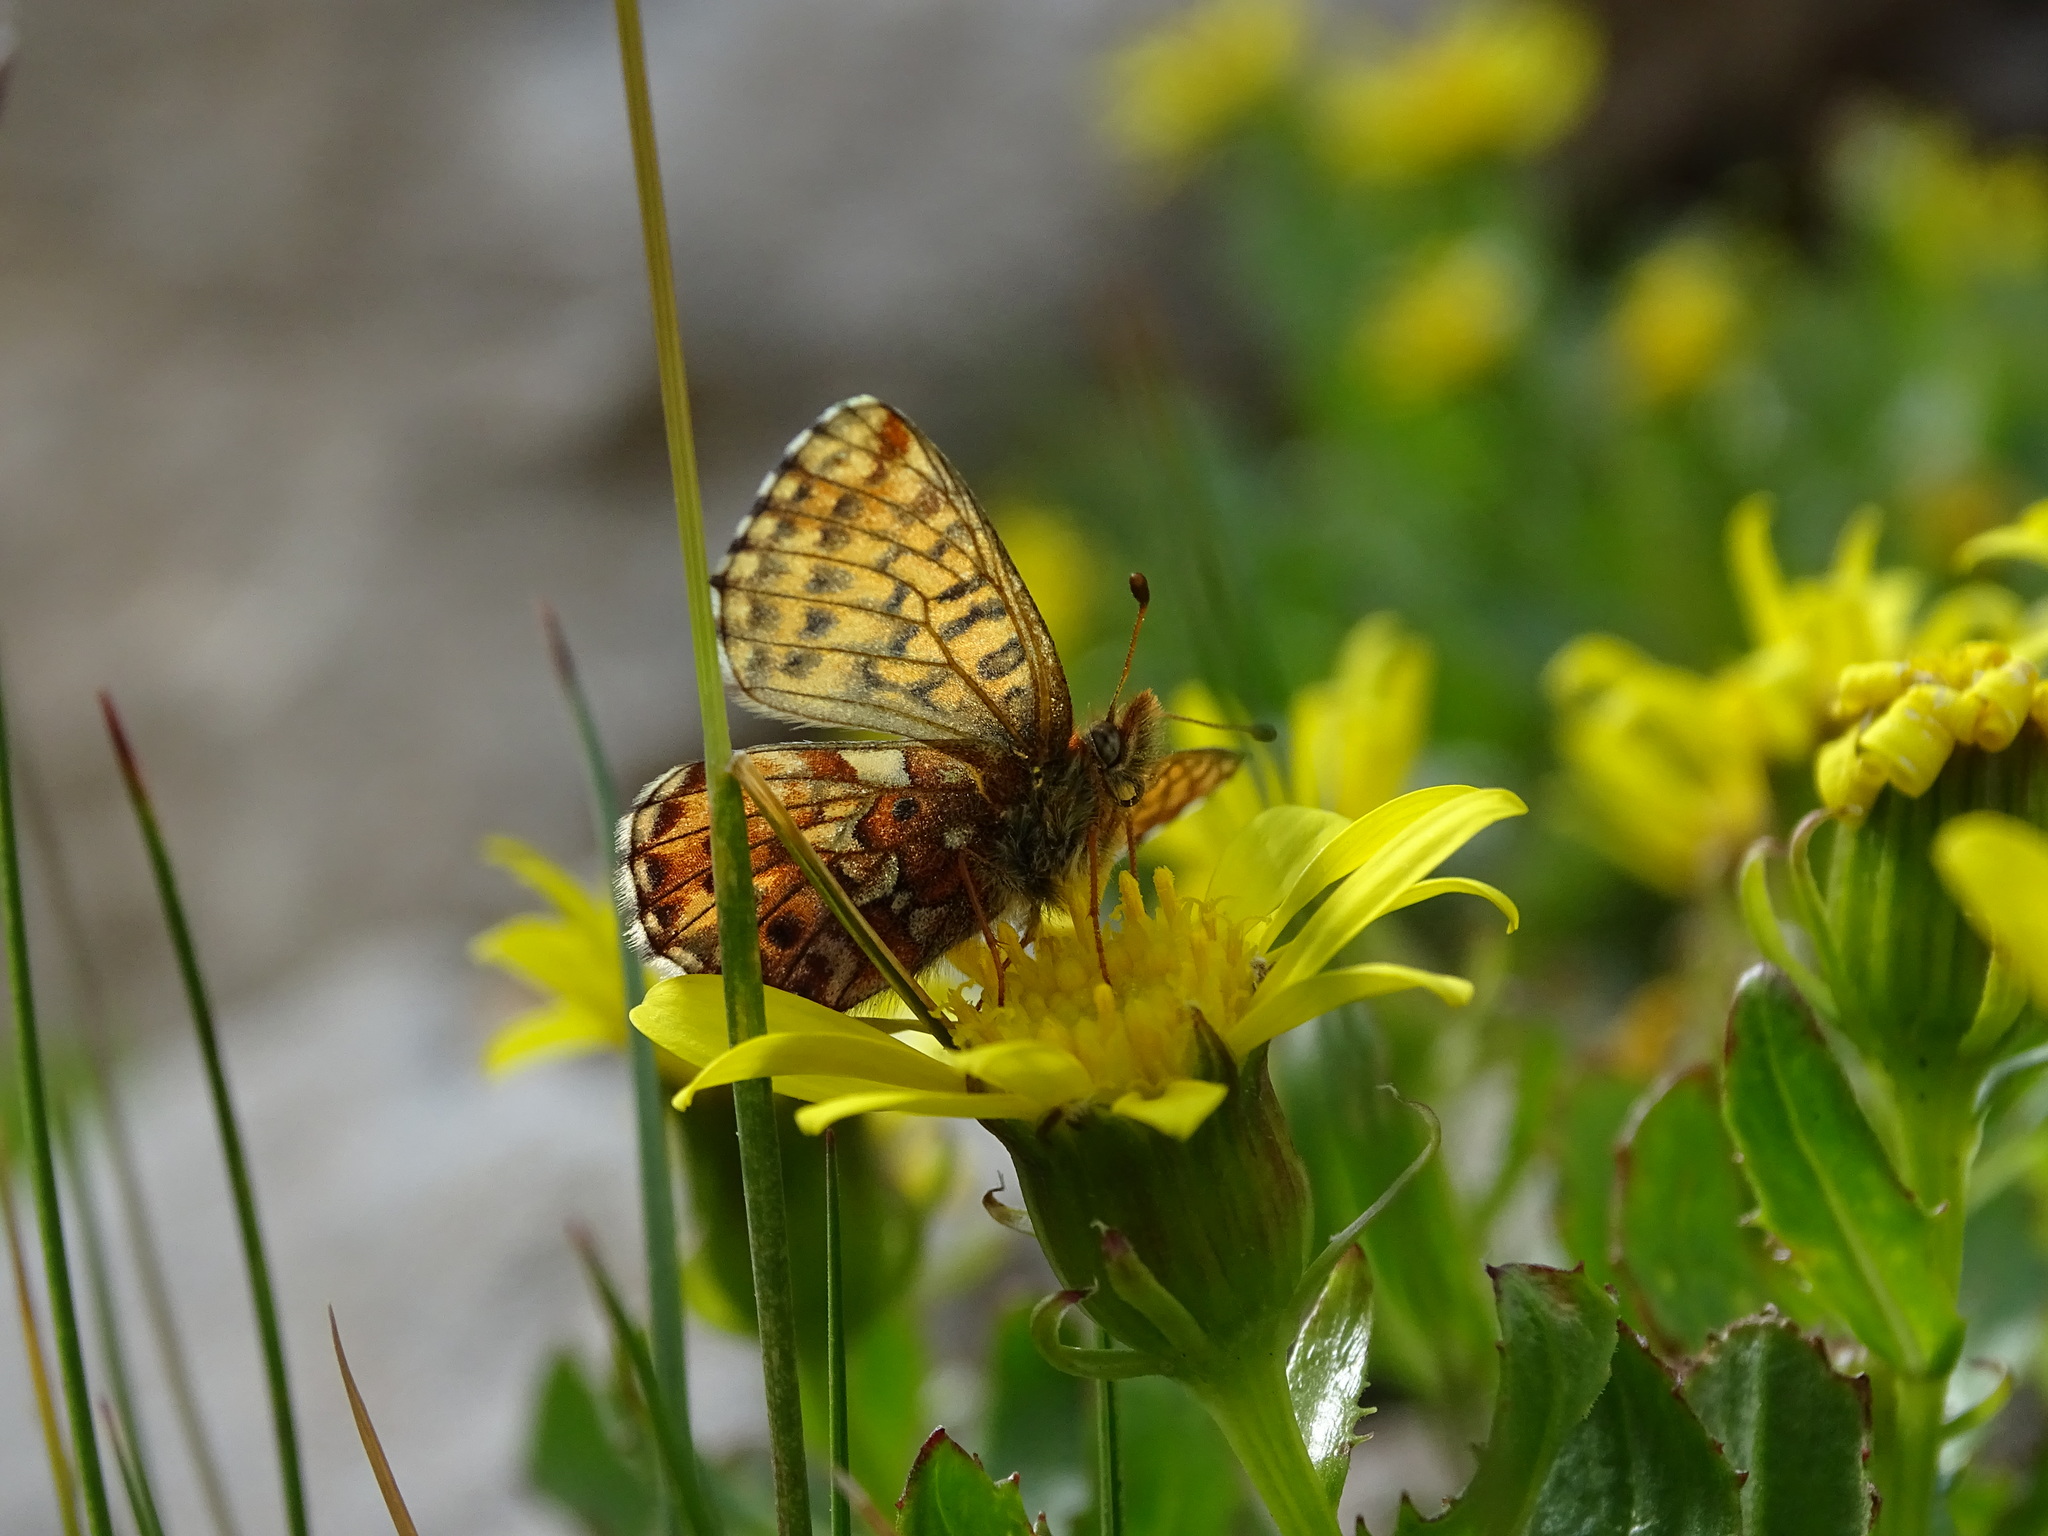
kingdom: Animalia
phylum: Arthropoda
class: Insecta
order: Lepidoptera
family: Nymphalidae
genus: Boloria
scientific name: Boloria chariclea
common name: Arctic fritillary
